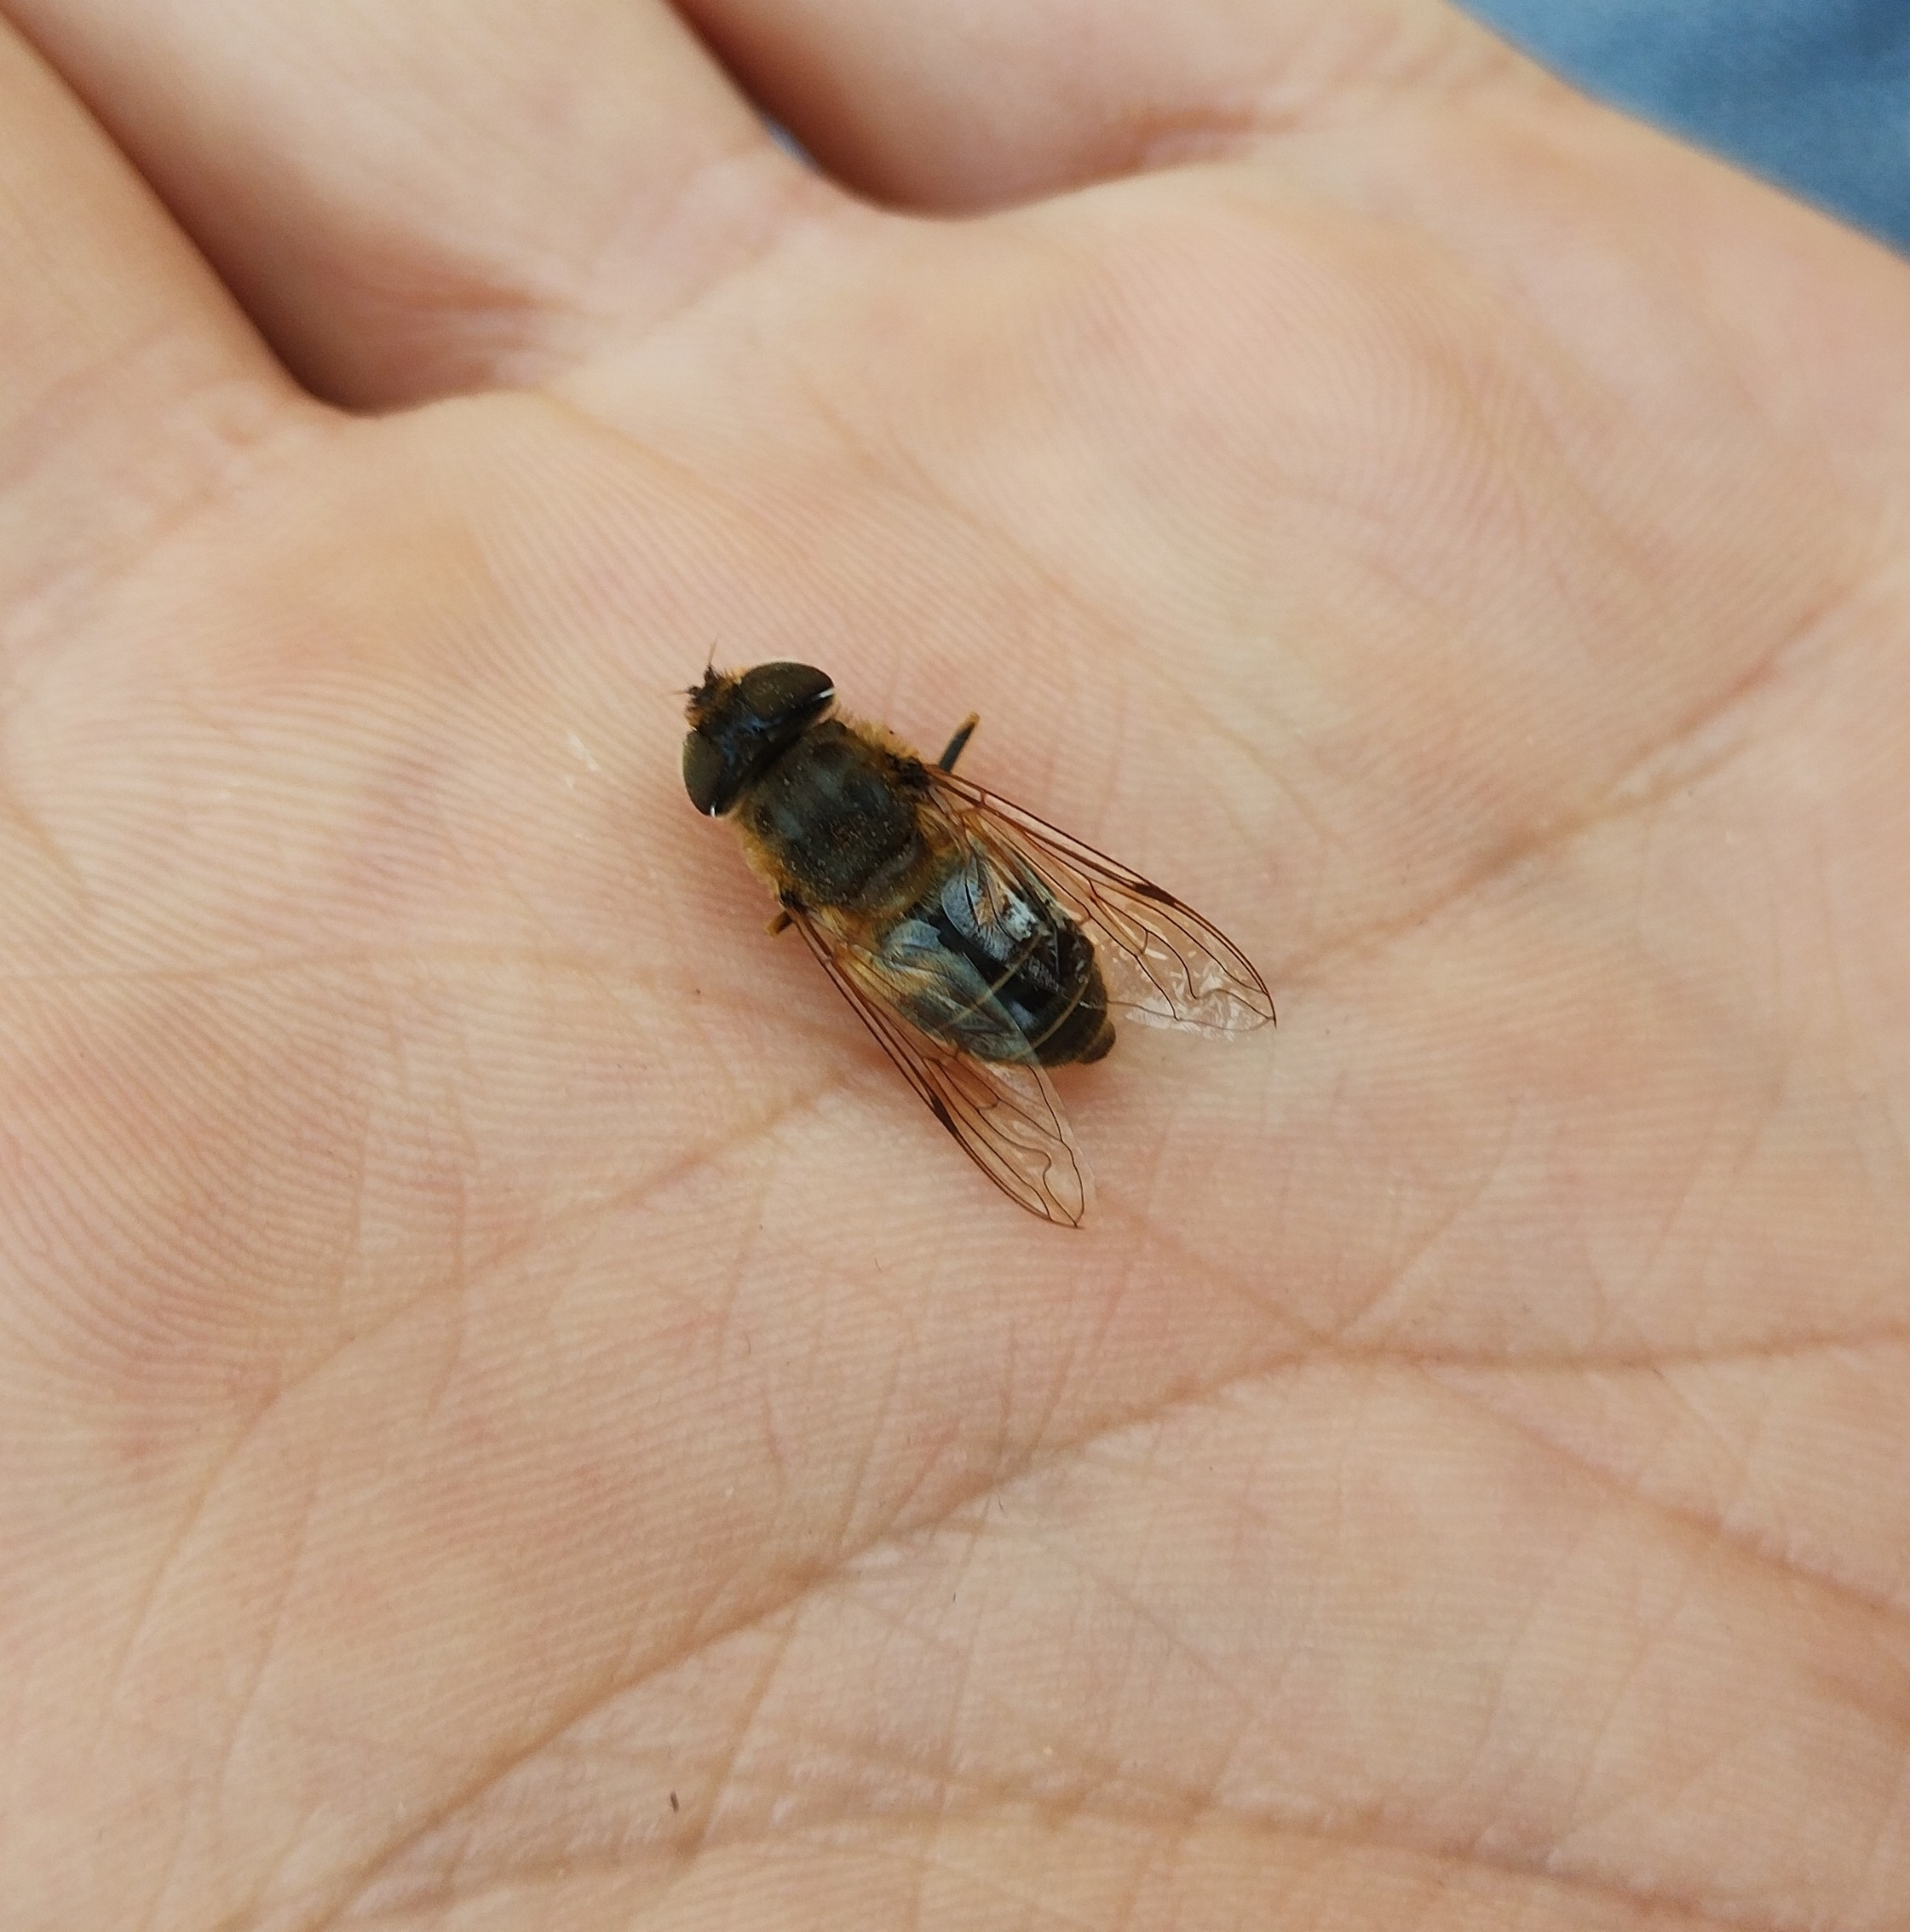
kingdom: Animalia
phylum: Arthropoda
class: Insecta
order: Diptera
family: Syrphidae
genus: Eristalis
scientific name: Eristalis pertinax
